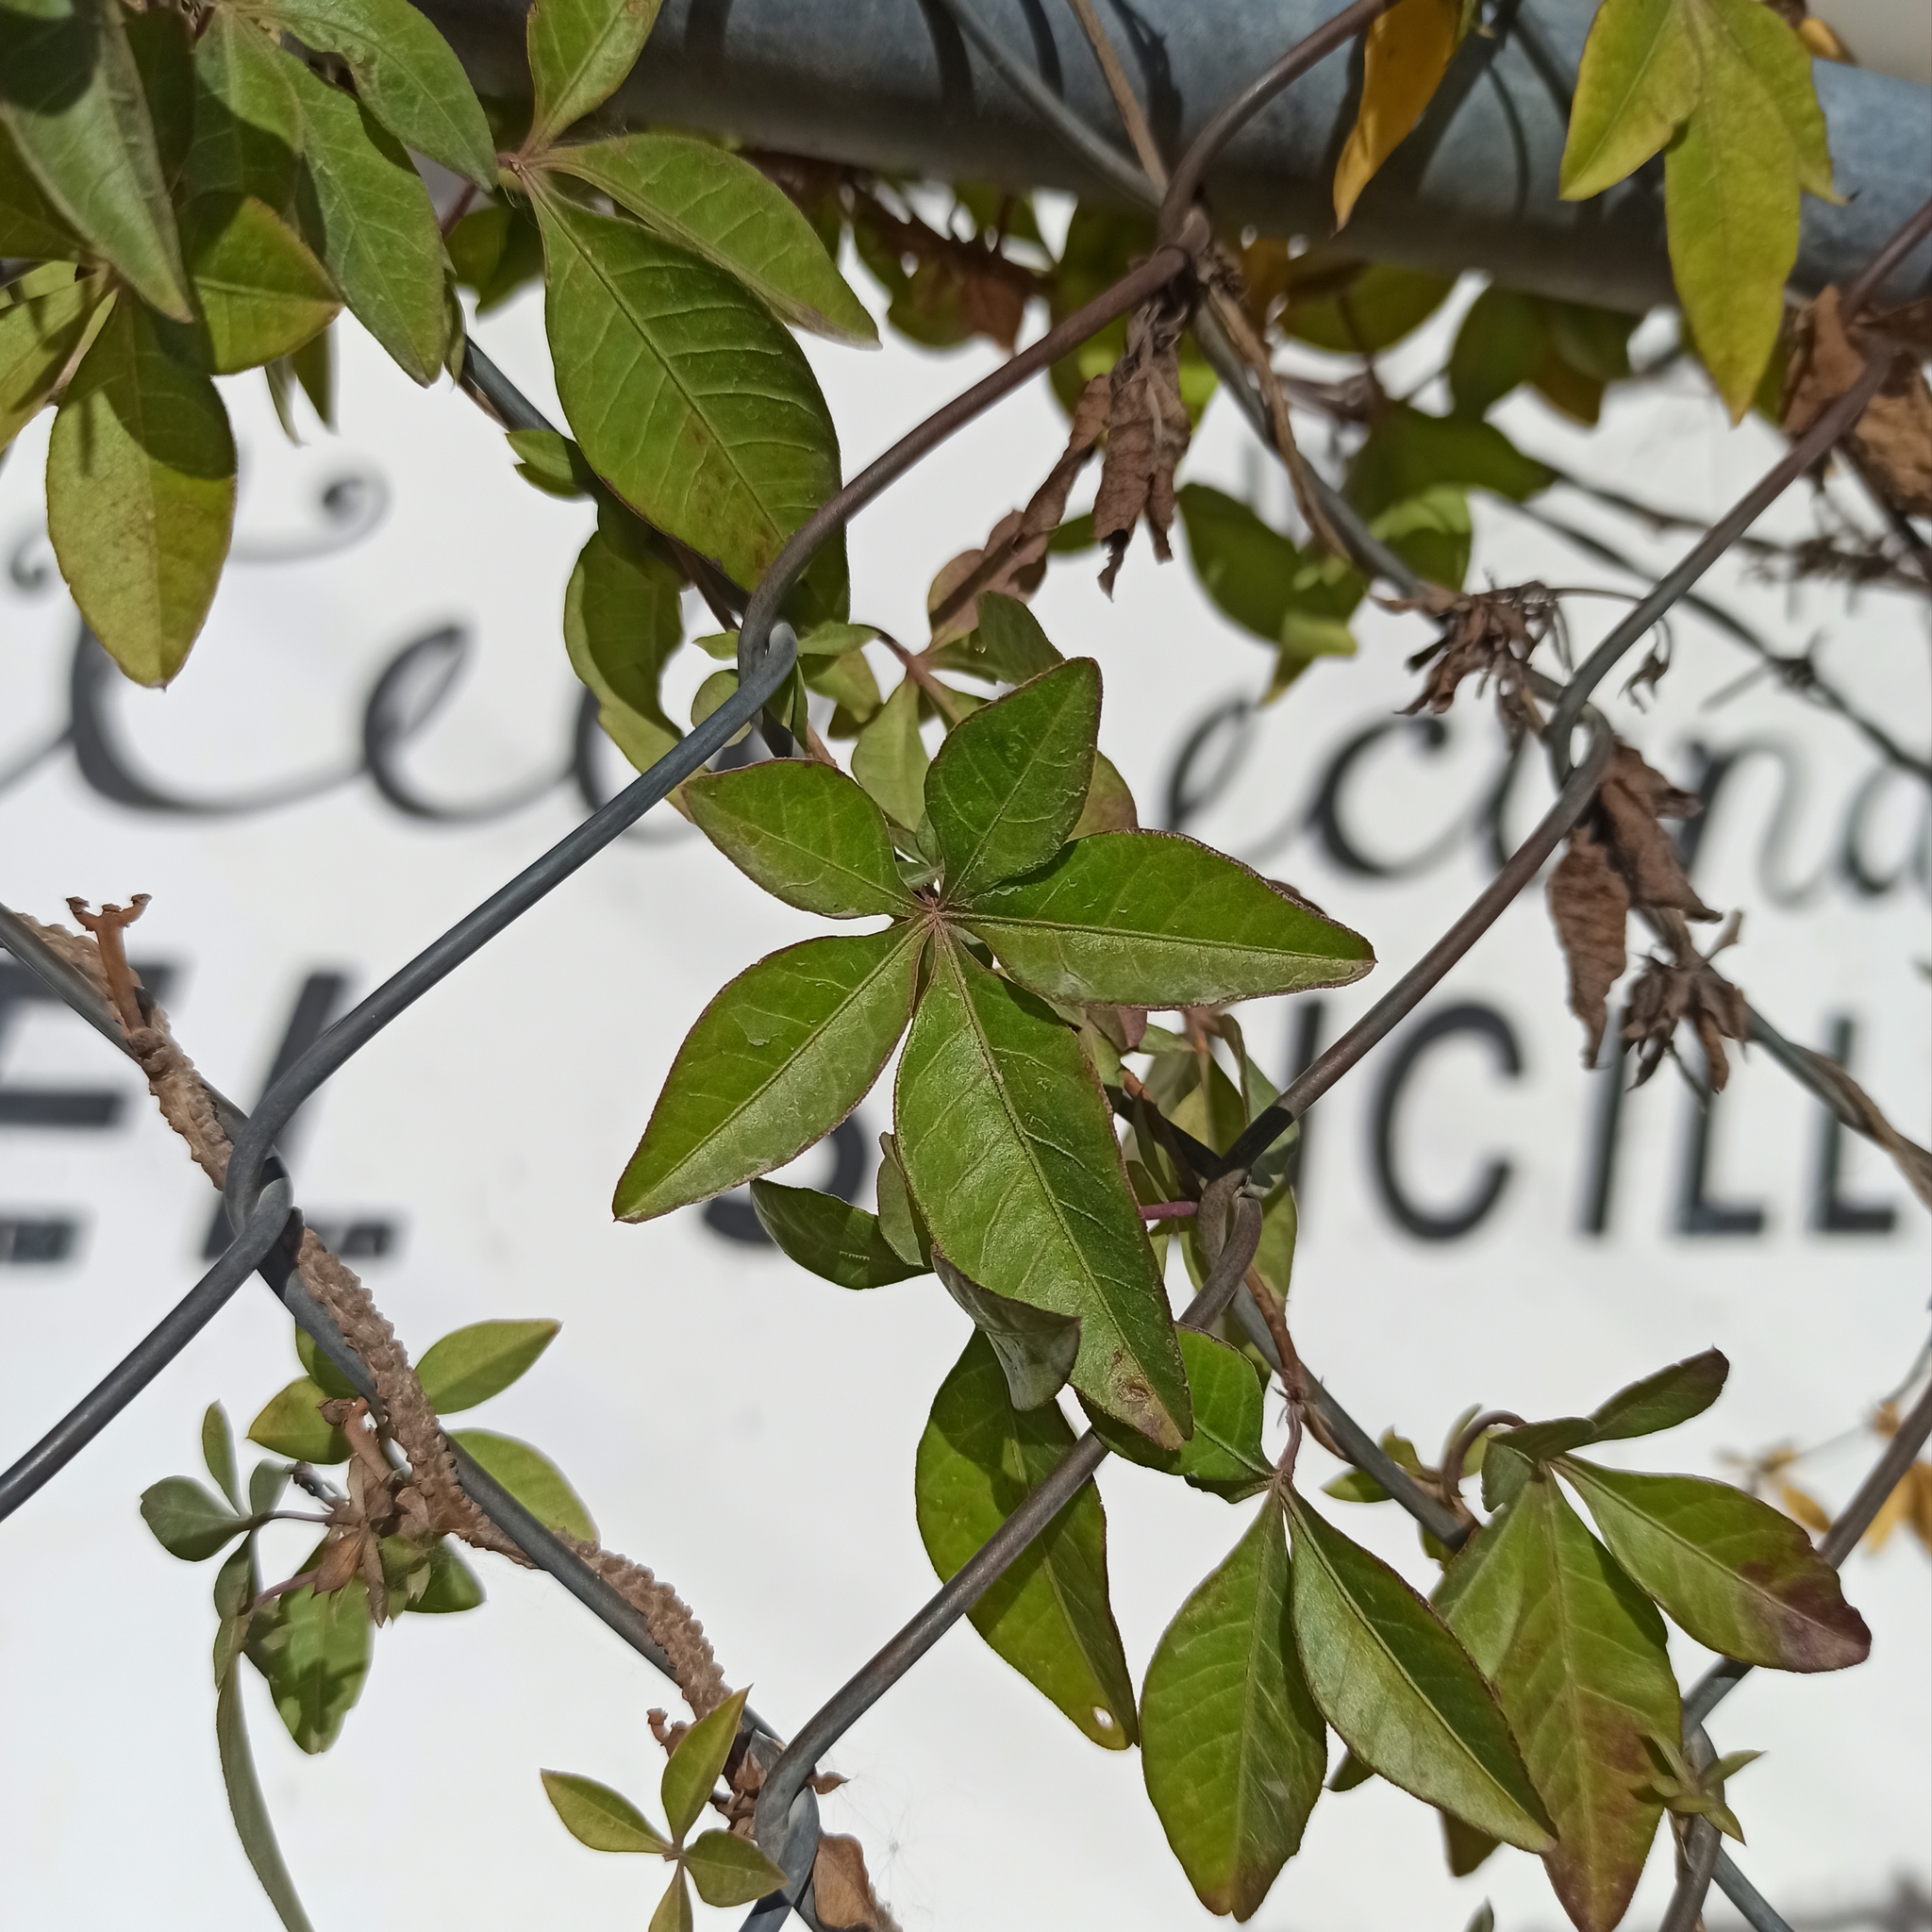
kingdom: Plantae
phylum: Tracheophyta
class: Magnoliopsida
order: Solanales
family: Convolvulaceae
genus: Ipomoea
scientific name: Ipomoea cairica
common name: Mile a minute vine
